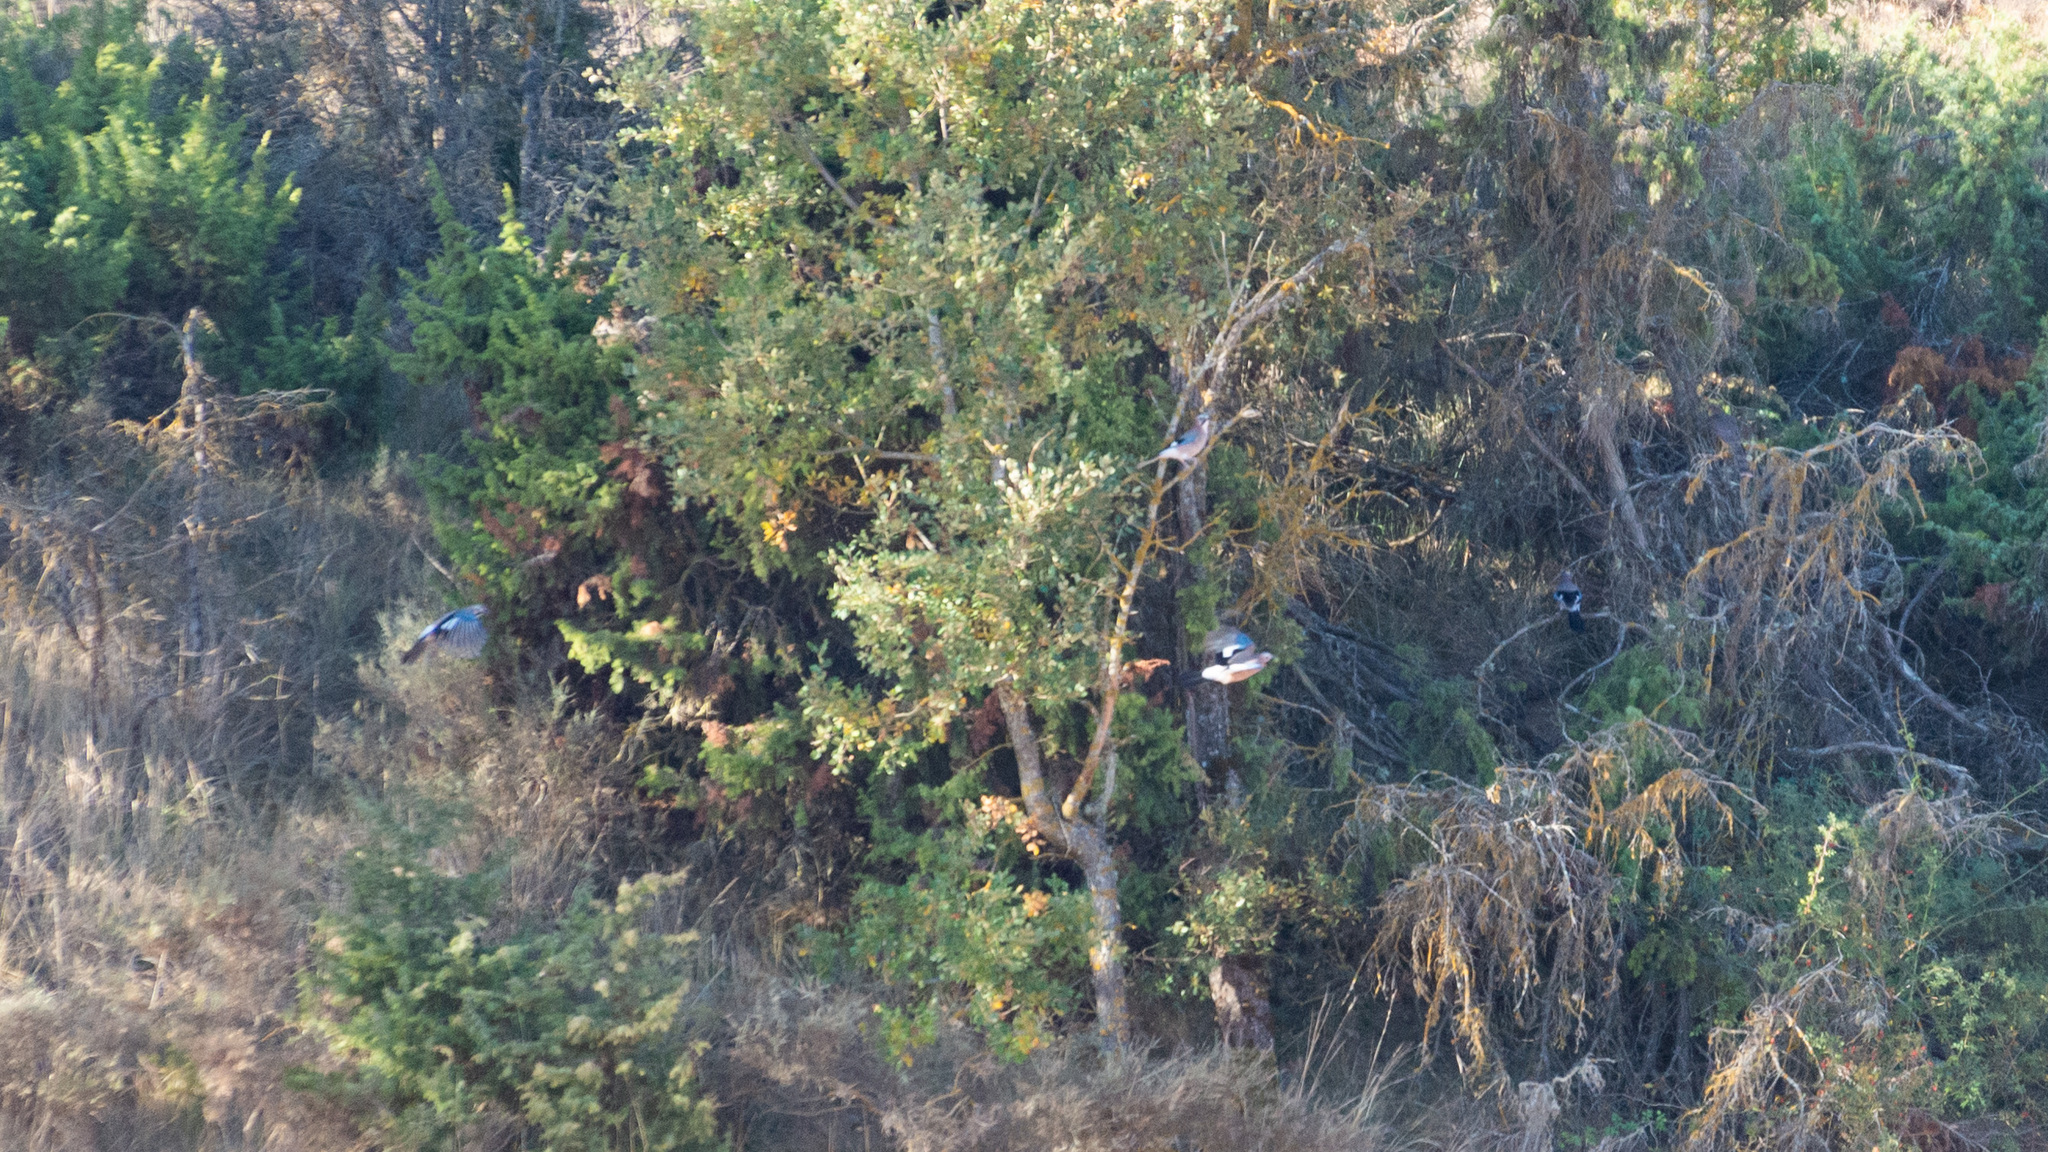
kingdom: Animalia
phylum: Chordata
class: Aves
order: Passeriformes
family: Corvidae
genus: Garrulus
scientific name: Garrulus glandarius
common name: Eurasian jay
